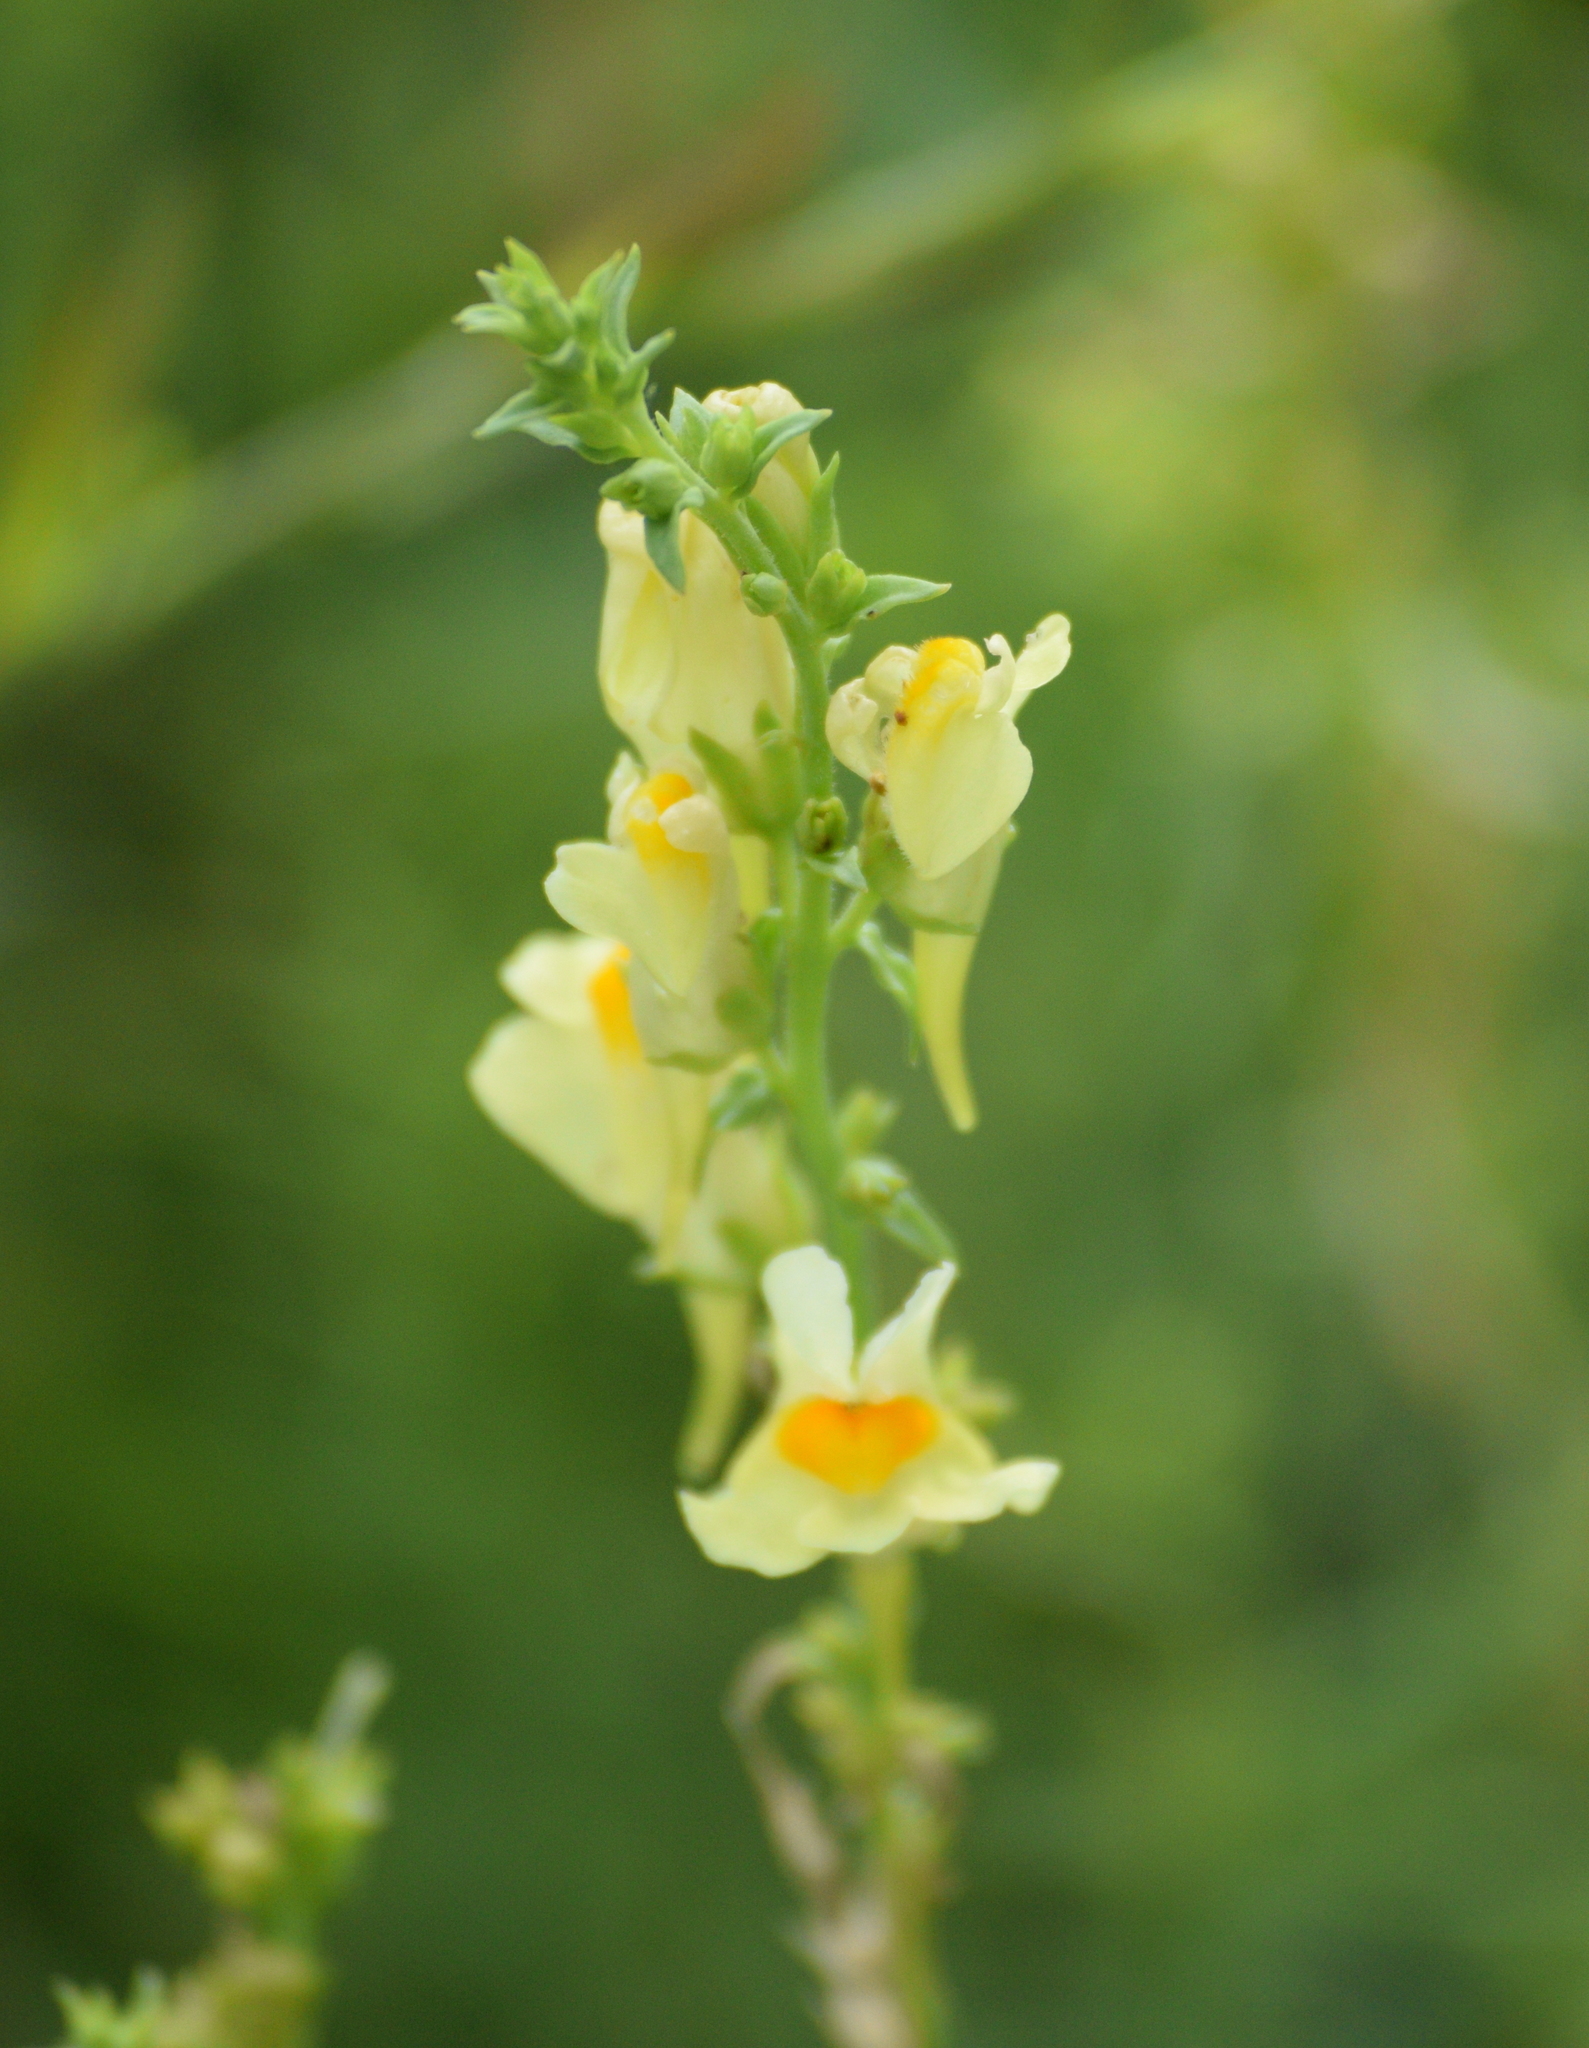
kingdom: Plantae
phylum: Tracheophyta
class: Magnoliopsida
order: Lamiales
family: Plantaginaceae
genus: Linaria
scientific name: Linaria vulgaris
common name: Butter and eggs
